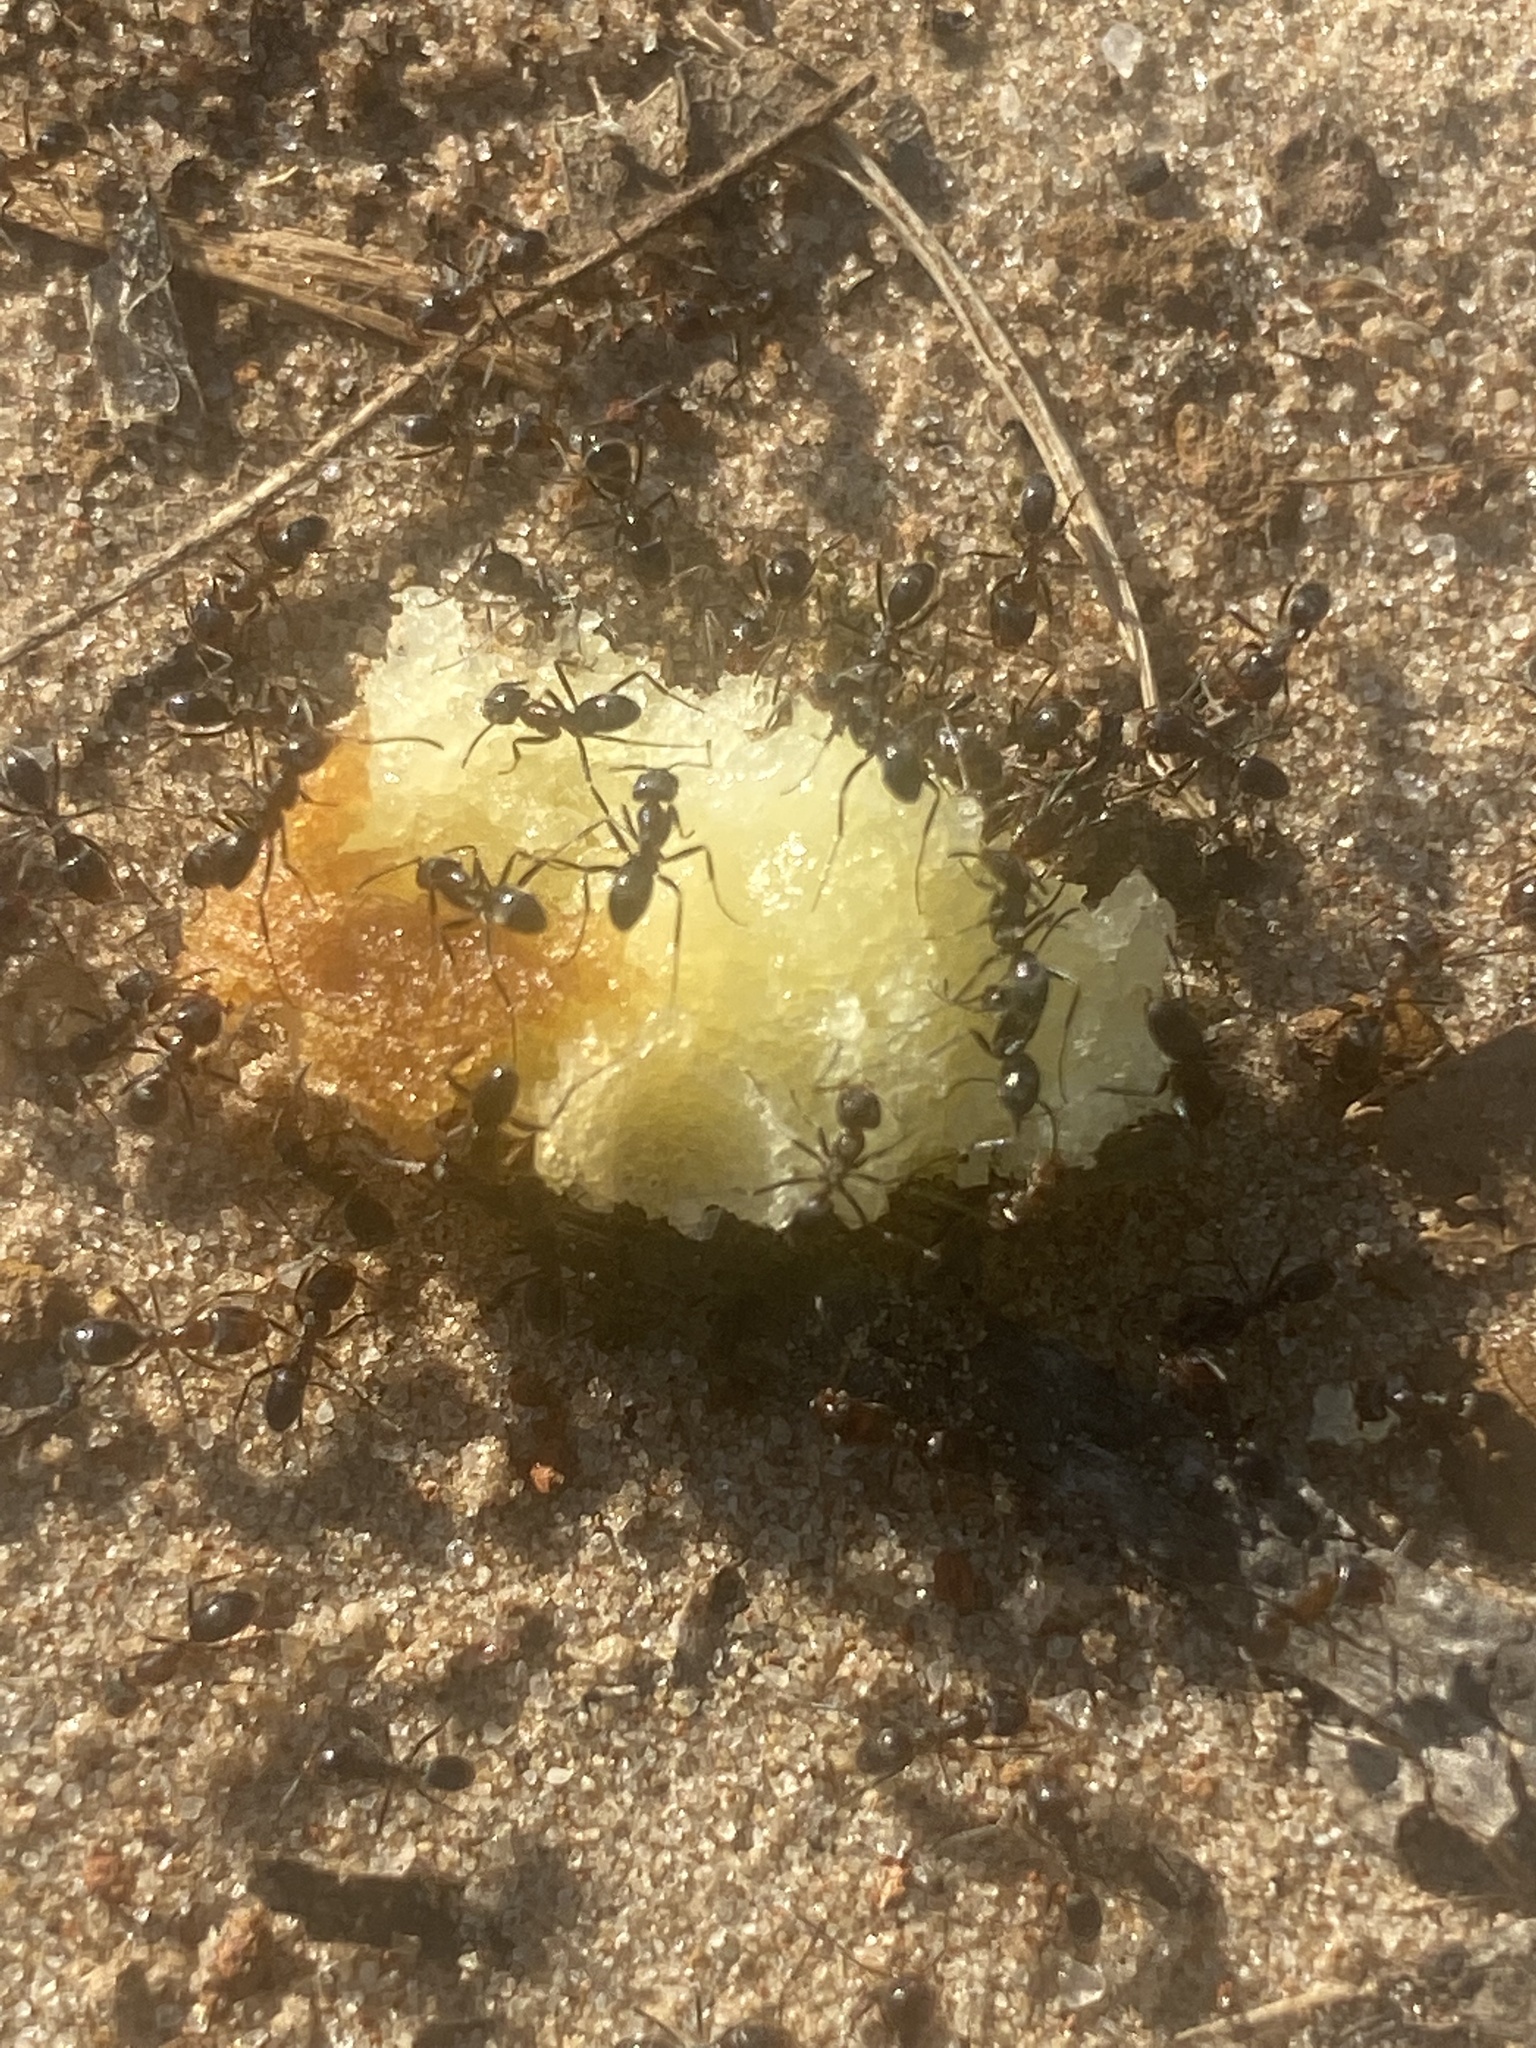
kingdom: Animalia
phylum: Arthropoda
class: Insecta
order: Hymenoptera
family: Formicidae
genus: Dorymyrmex
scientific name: Dorymyrmex
